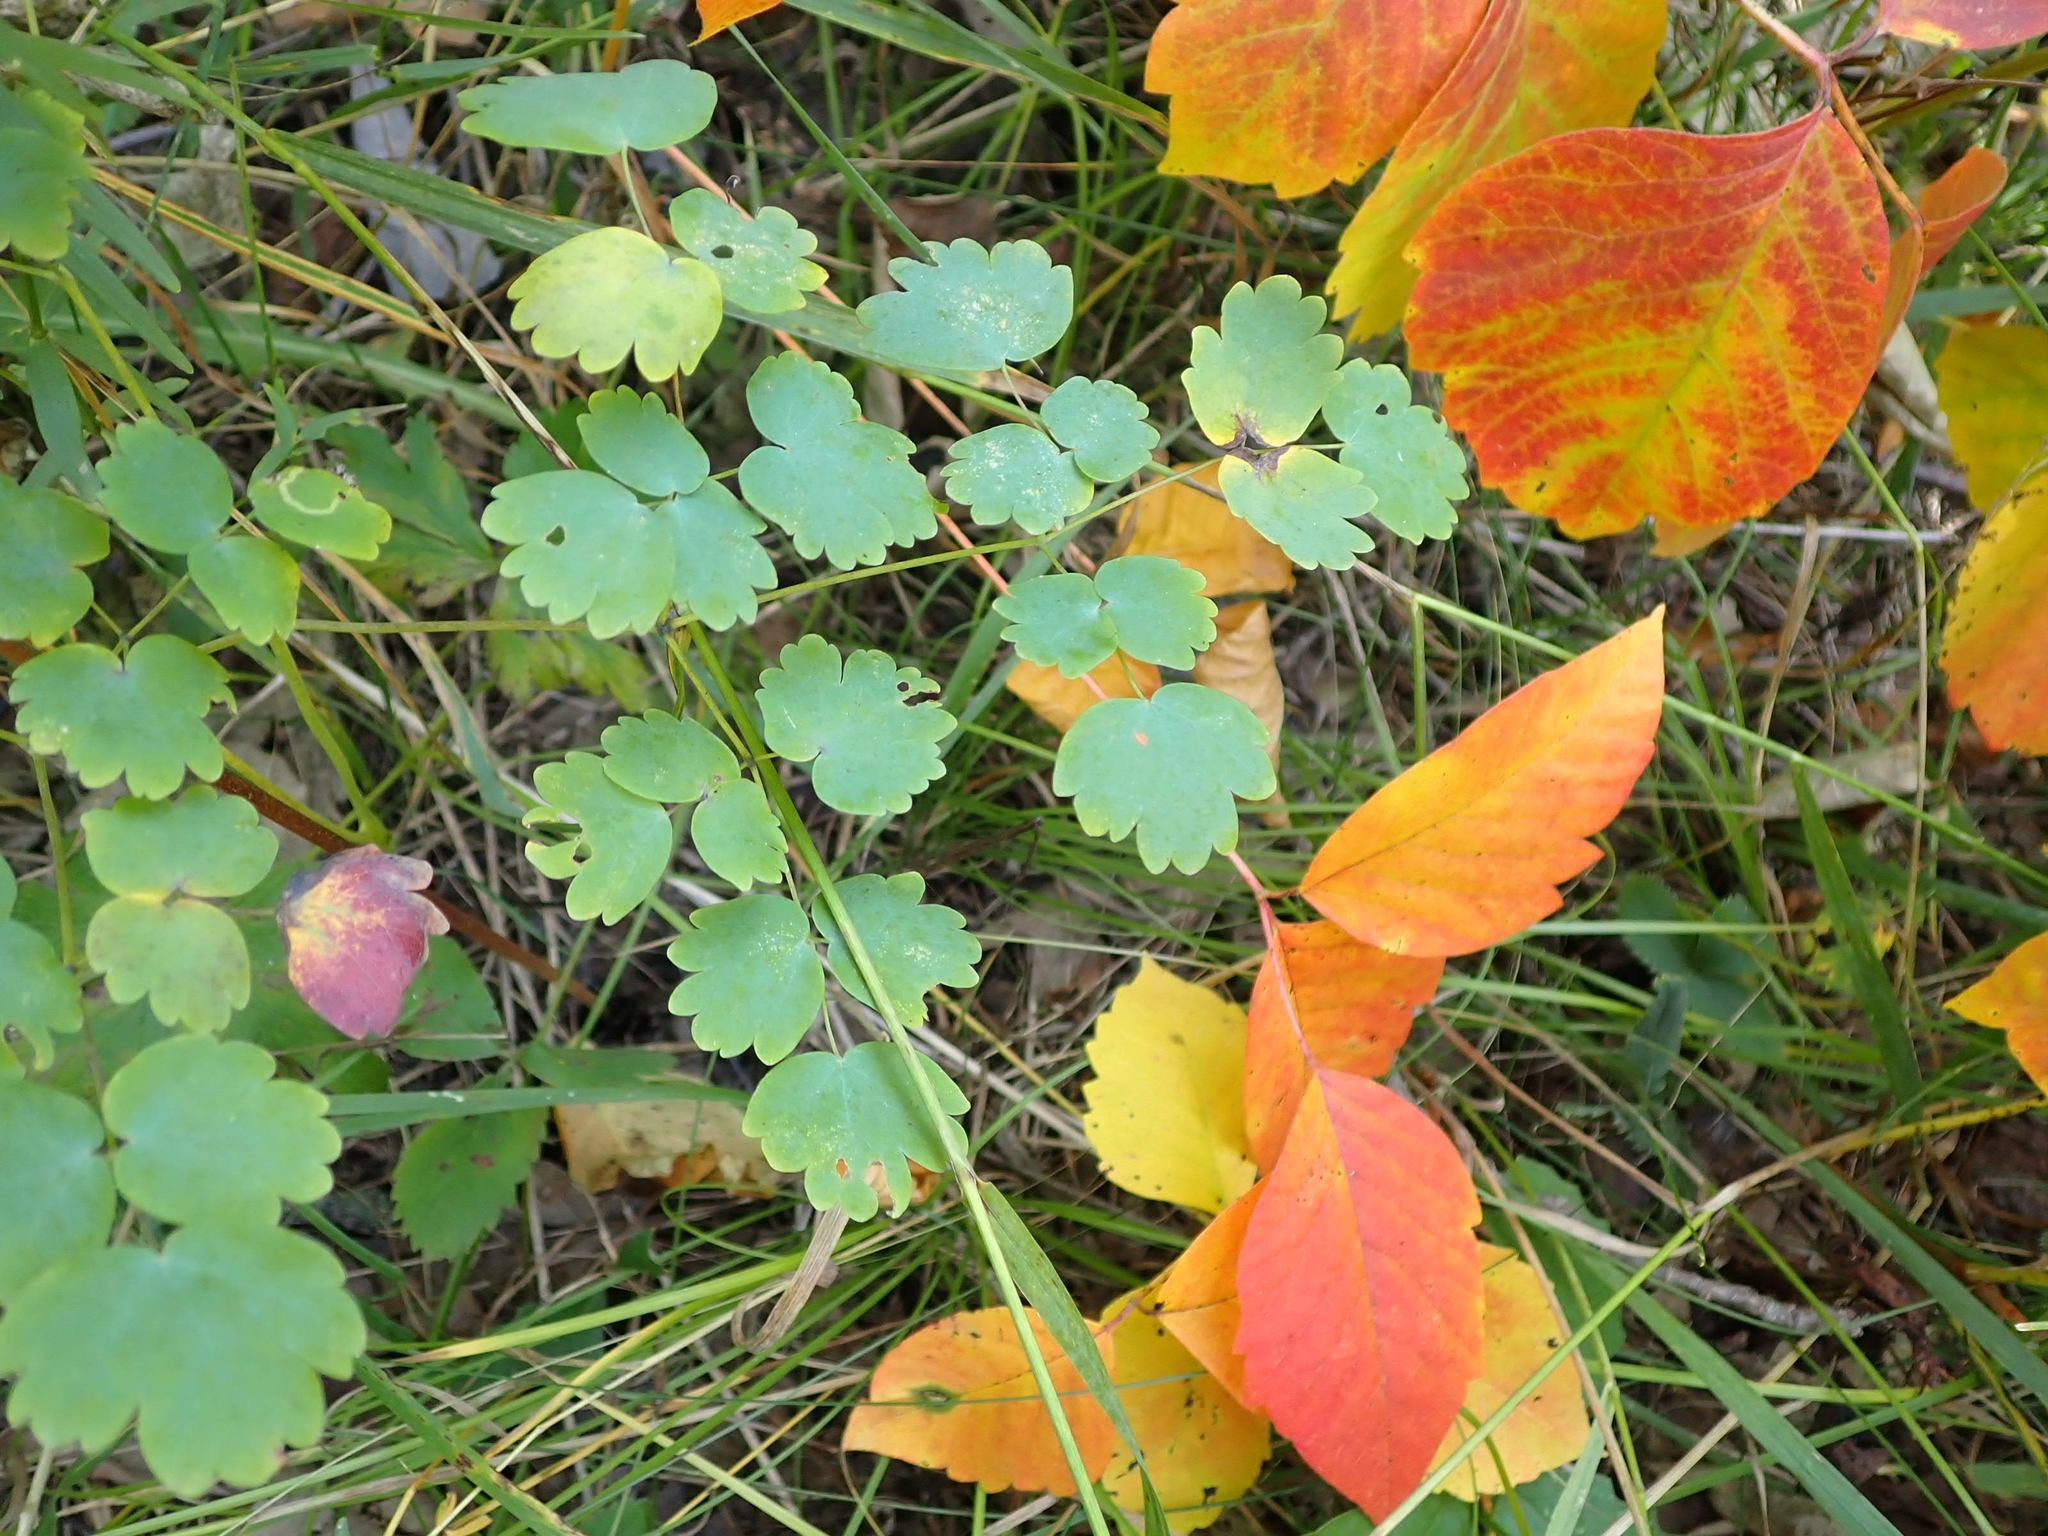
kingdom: Plantae
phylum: Tracheophyta
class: Magnoliopsida
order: Ranunculales
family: Ranunculaceae
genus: Thalictrum
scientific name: Thalictrum venulosum
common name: Early meadow-rue
